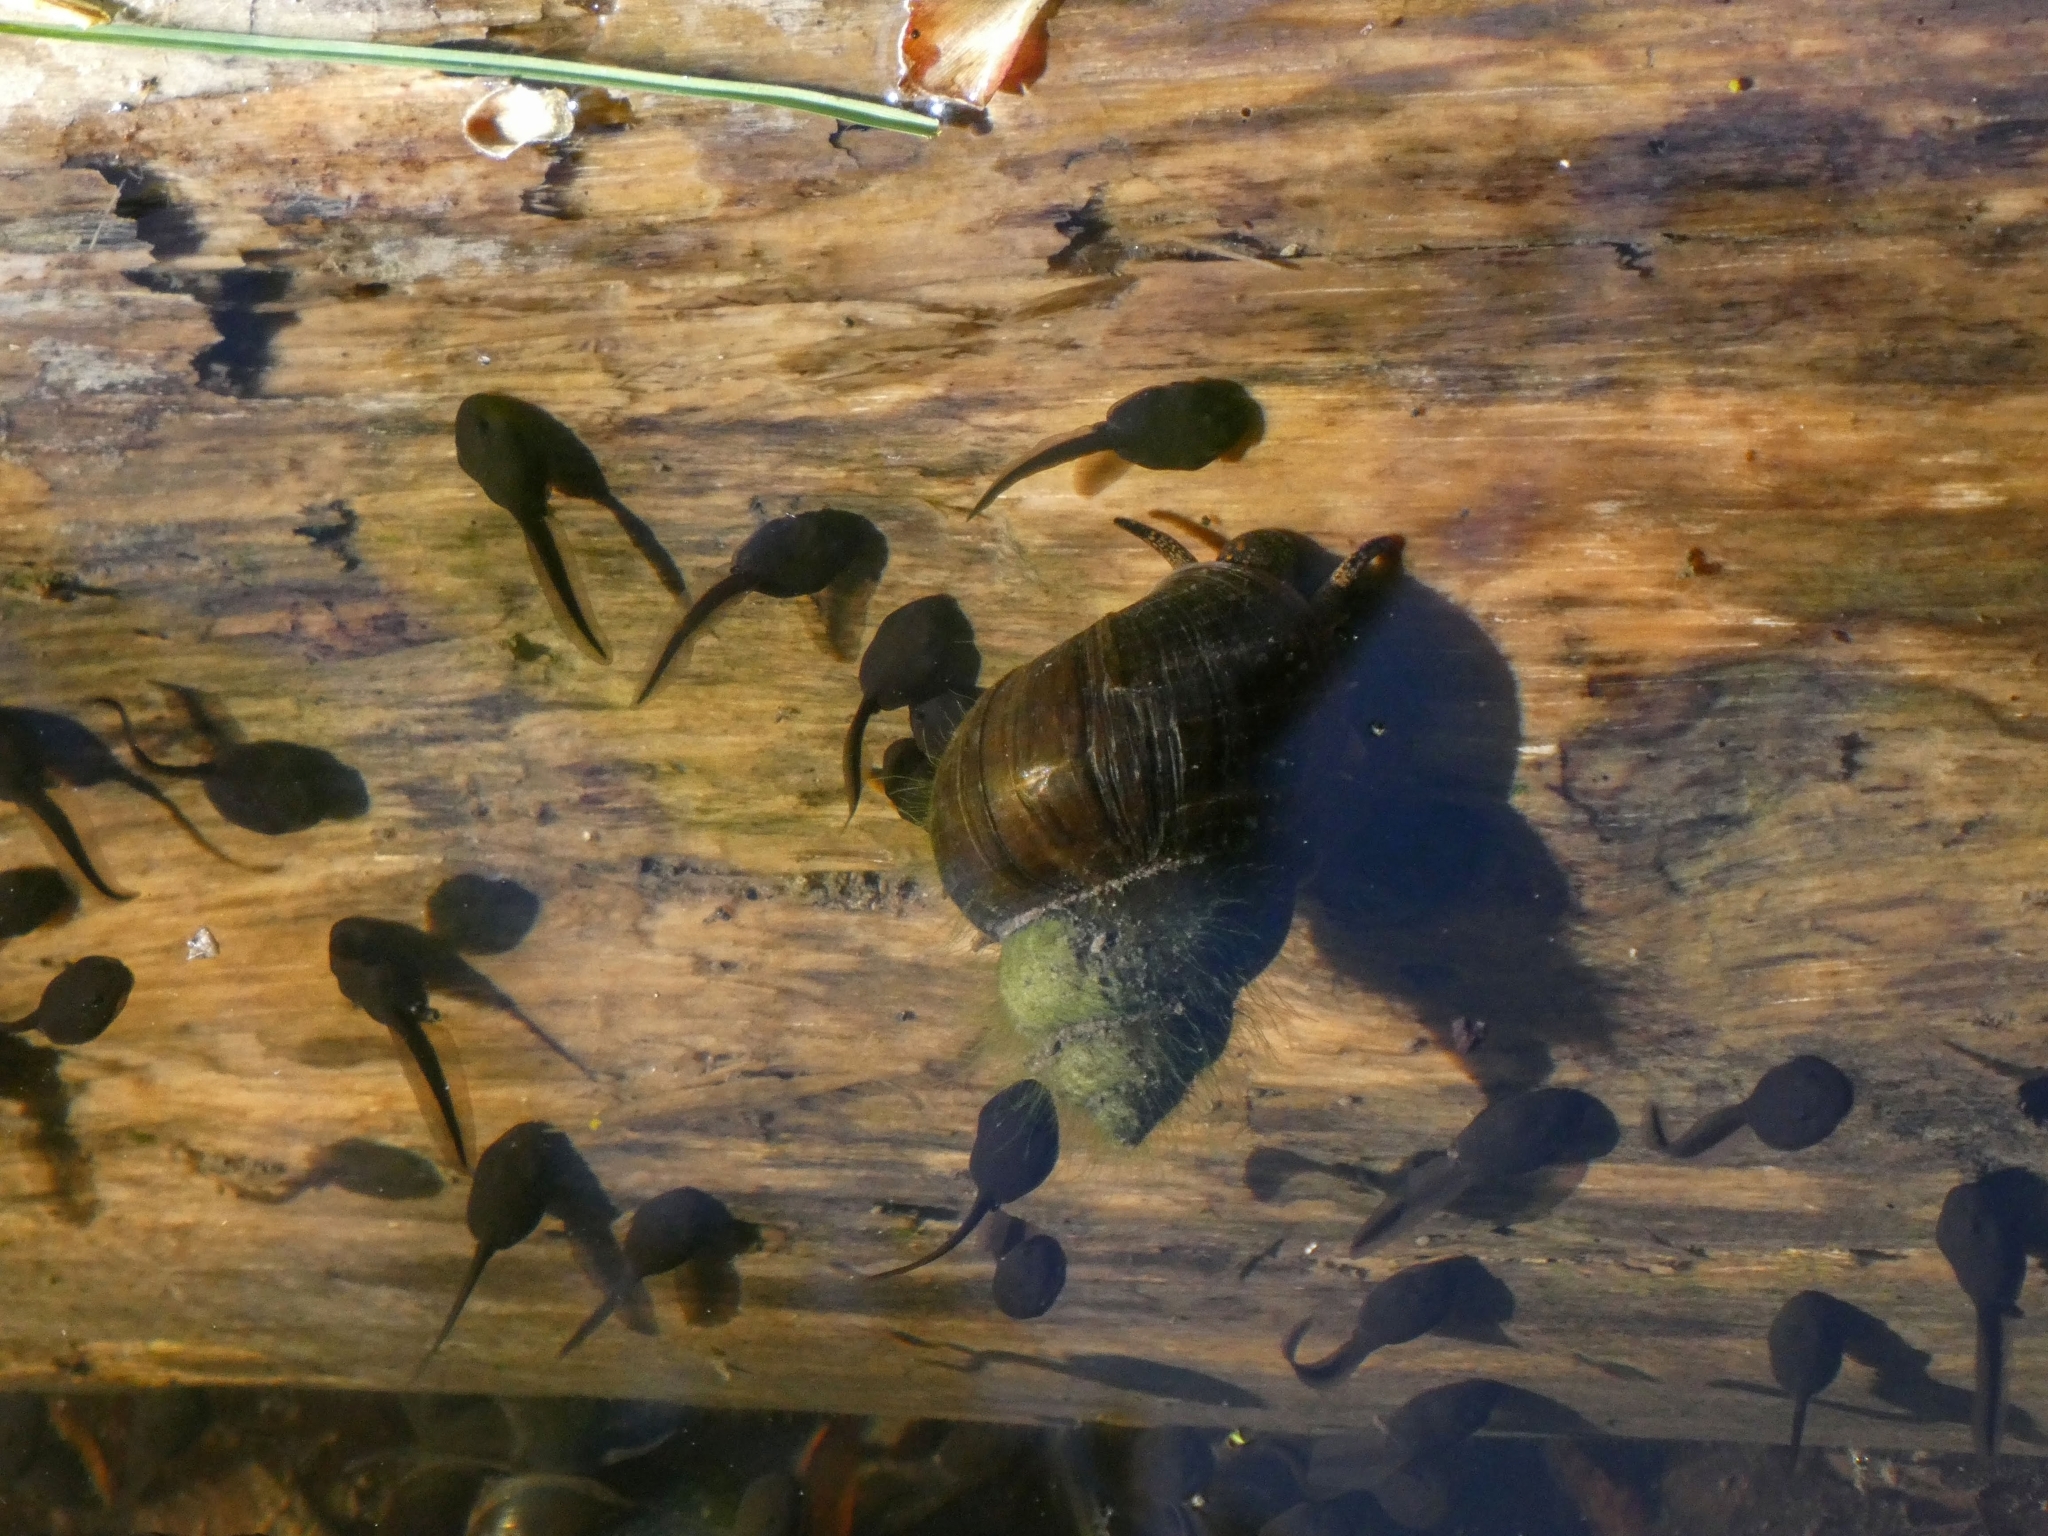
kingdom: Animalia
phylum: Mollusca
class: Gastropoda
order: Architaenioglossa
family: Viviparidae
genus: Viviparus
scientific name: Viviparus contectus
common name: Lister's river snail
